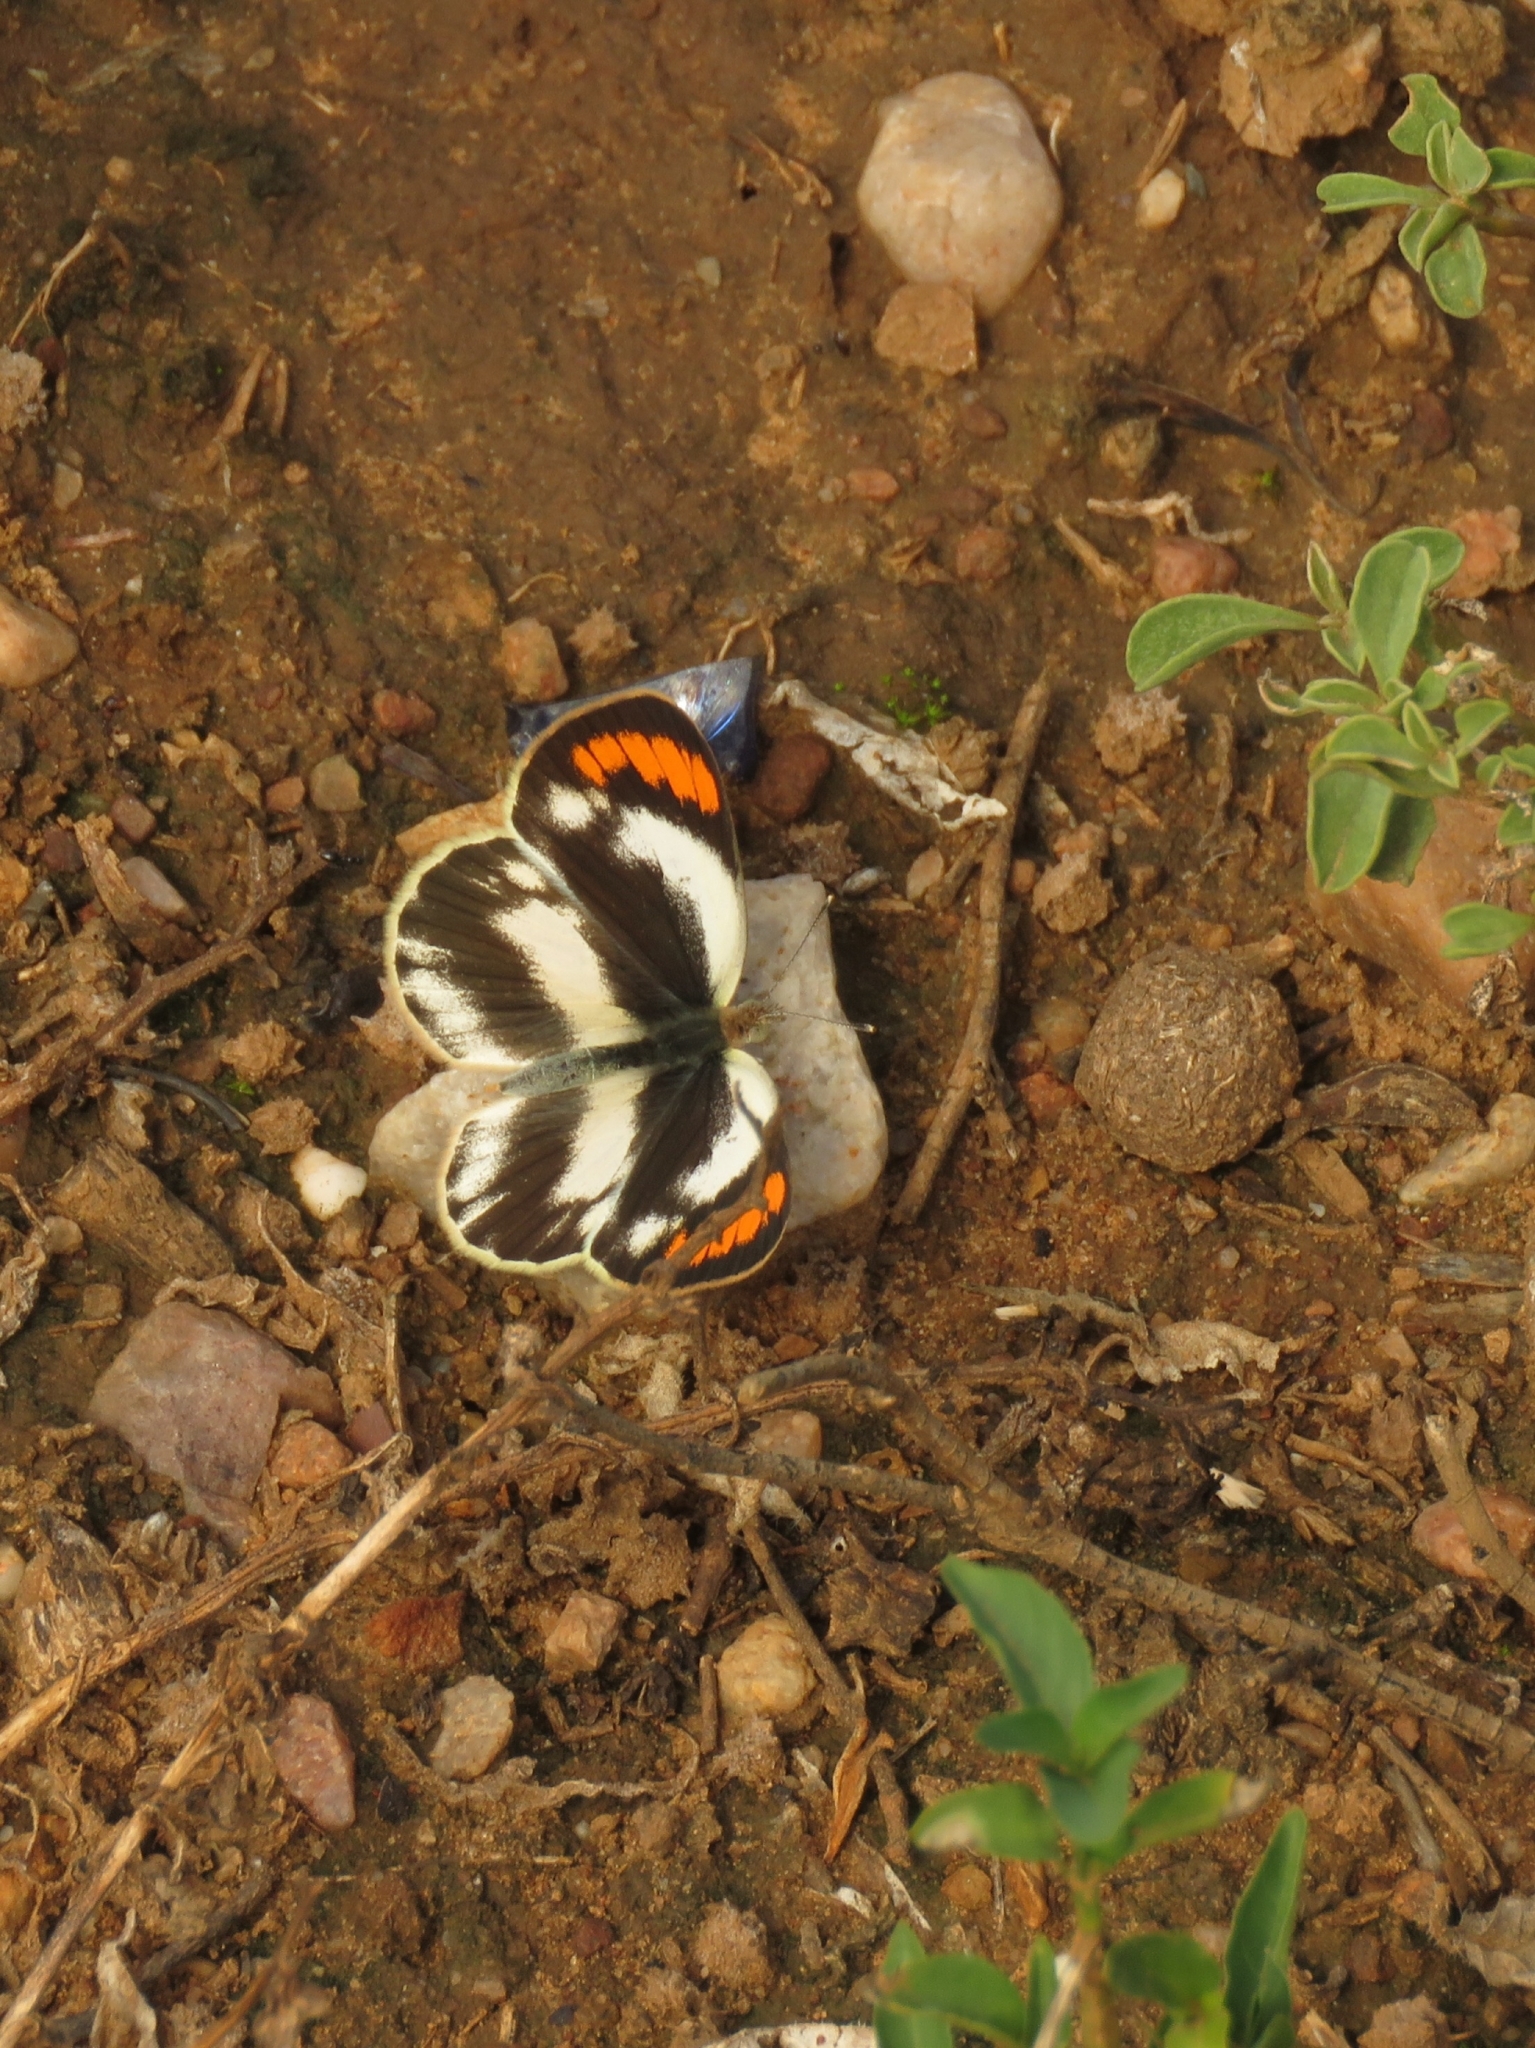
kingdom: Animalia
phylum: Arthropoda
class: Insecta
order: Lepidoptera
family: Pieridae
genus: Colotis
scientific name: Colotis euippe
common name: Round-winged orange tip
